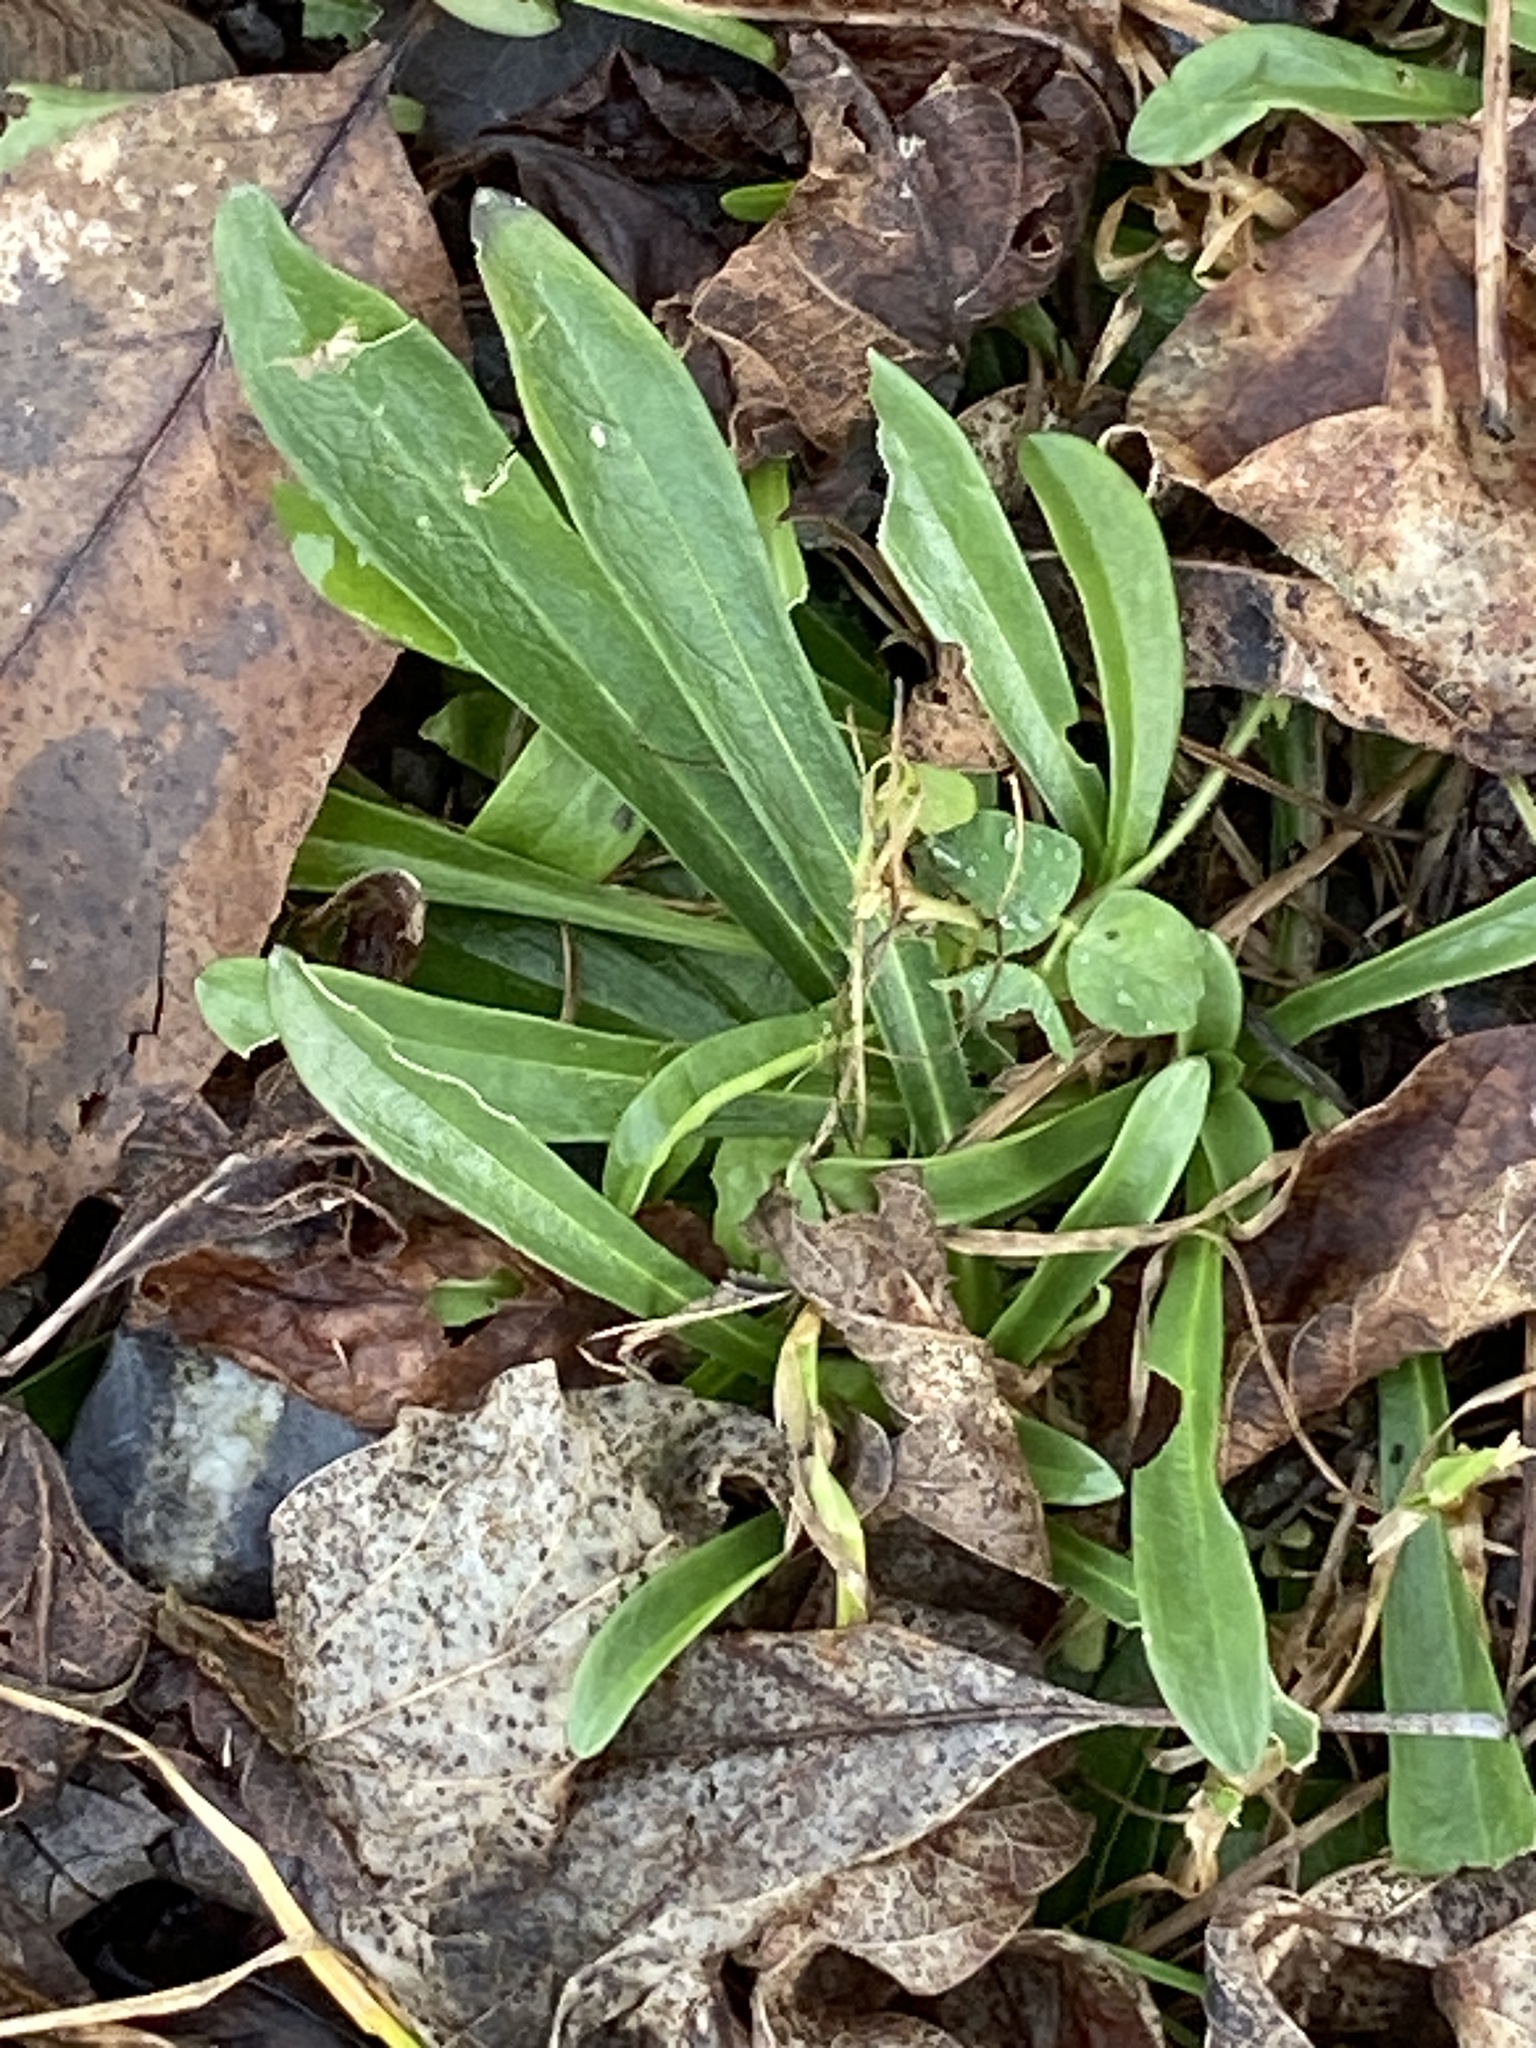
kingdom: Plantae
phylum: Tracheophyta
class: Magnoliopsida
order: Caryophyllales
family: Caryophyllaceae
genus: Dianthus
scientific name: Dianthus armeria
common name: Deptford pink
